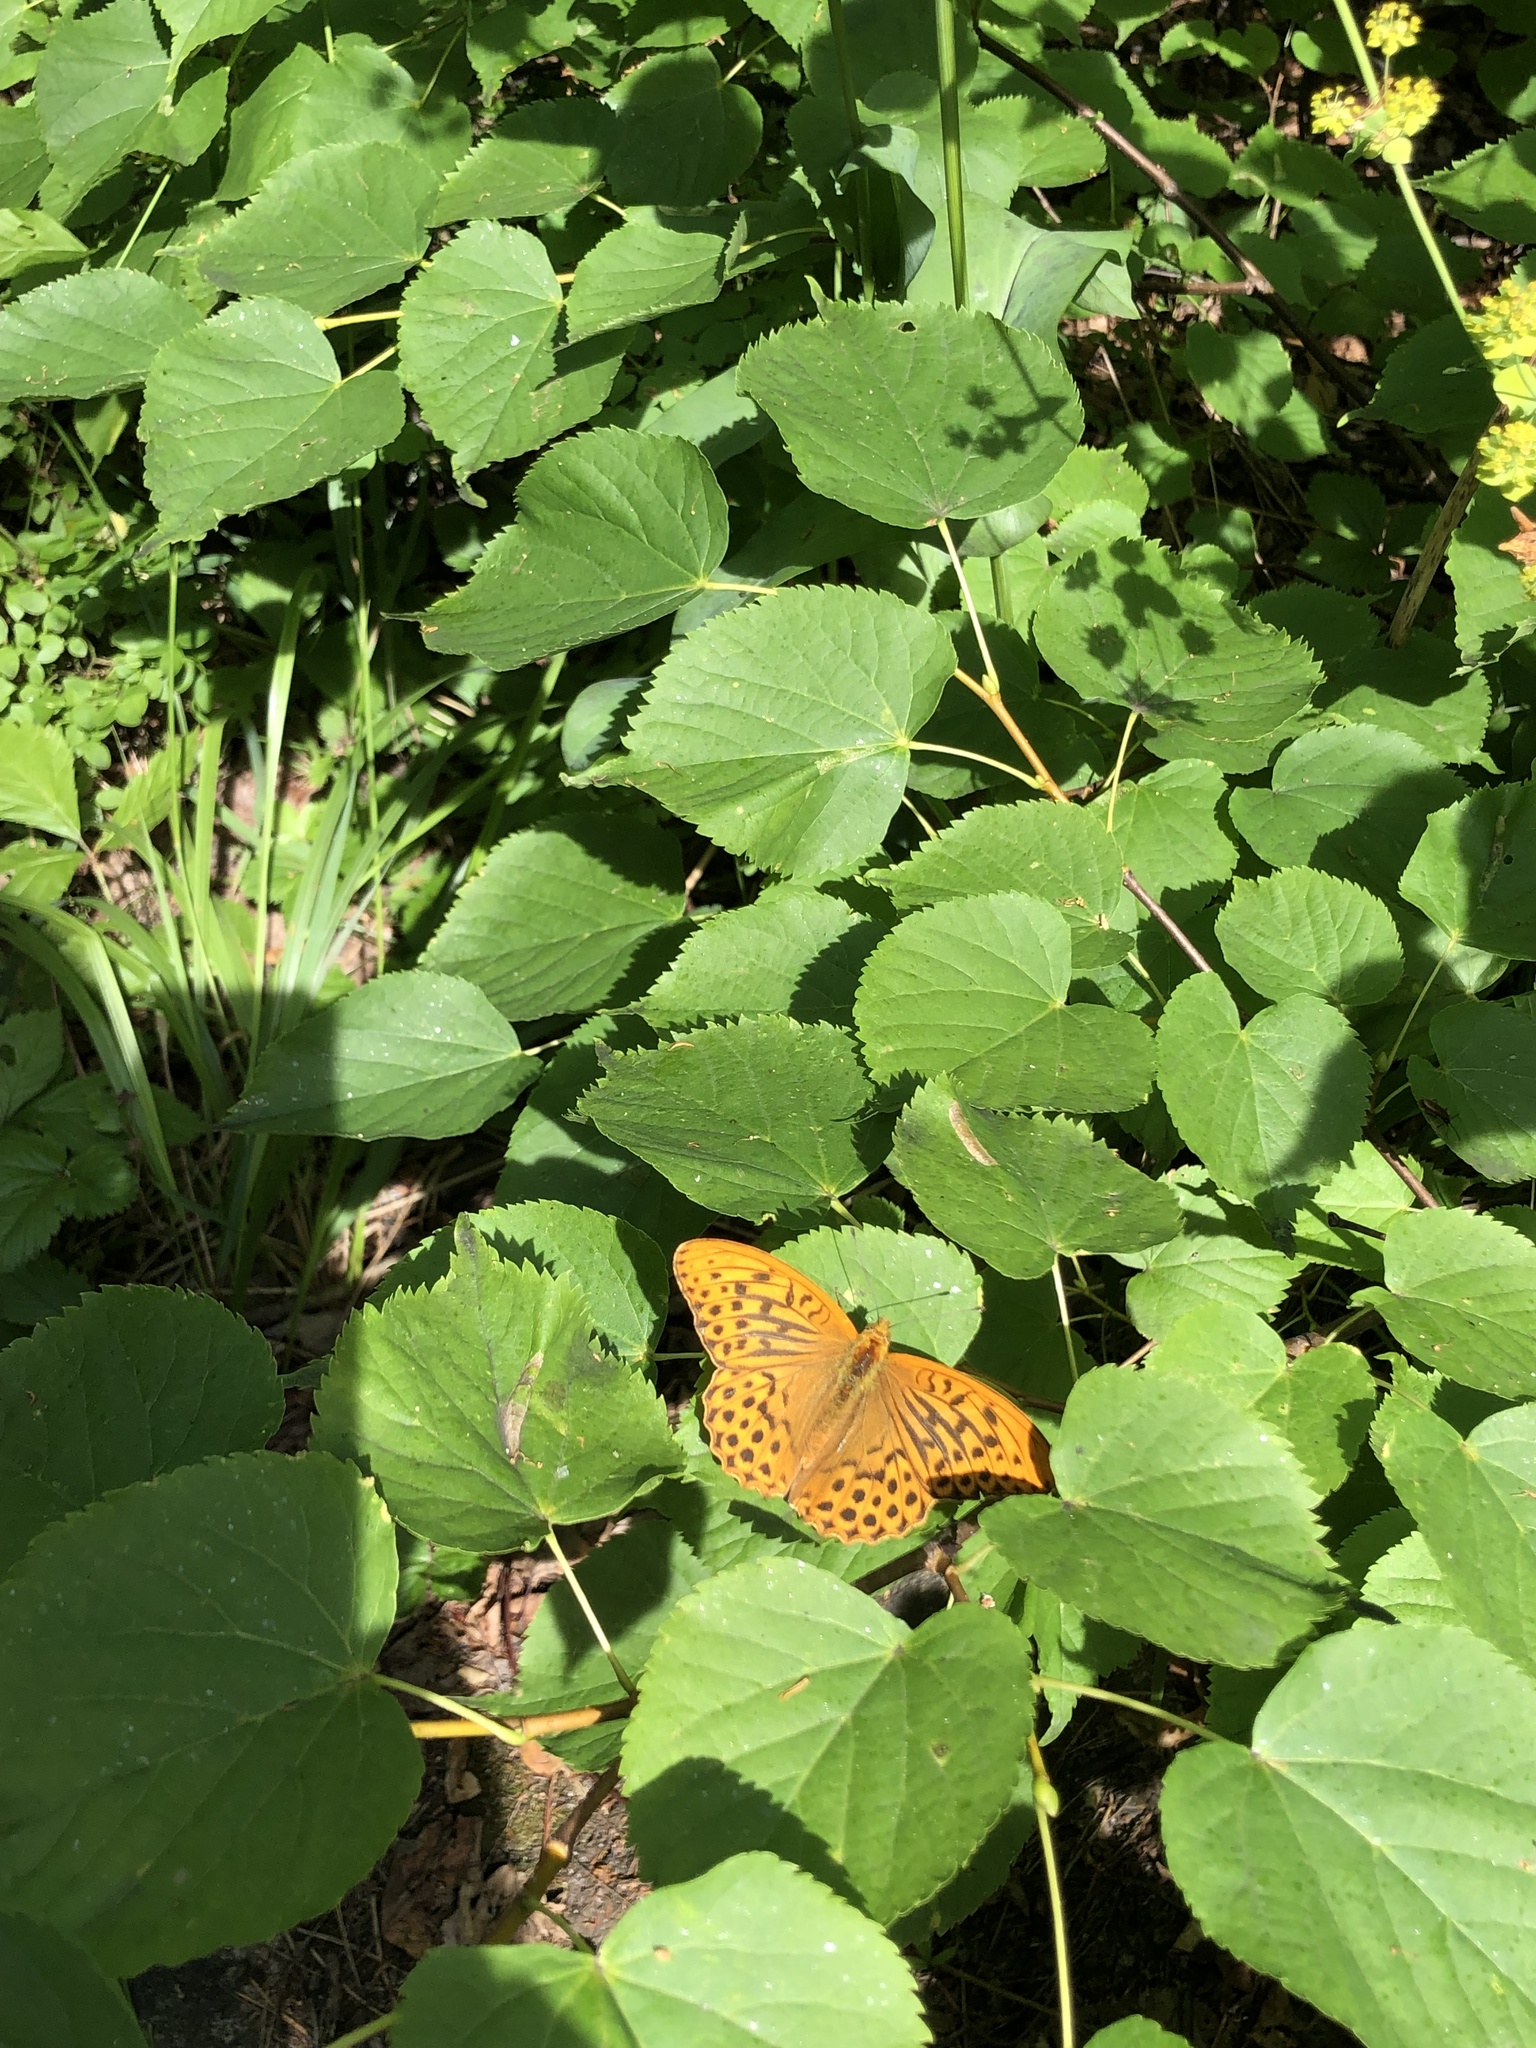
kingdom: Animalia
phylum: Arthropoda
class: Insecta
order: Lepidoptera
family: Nymphalidae
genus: Argynnis
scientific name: Argynnis paphia
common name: Silver-washed fritillary
